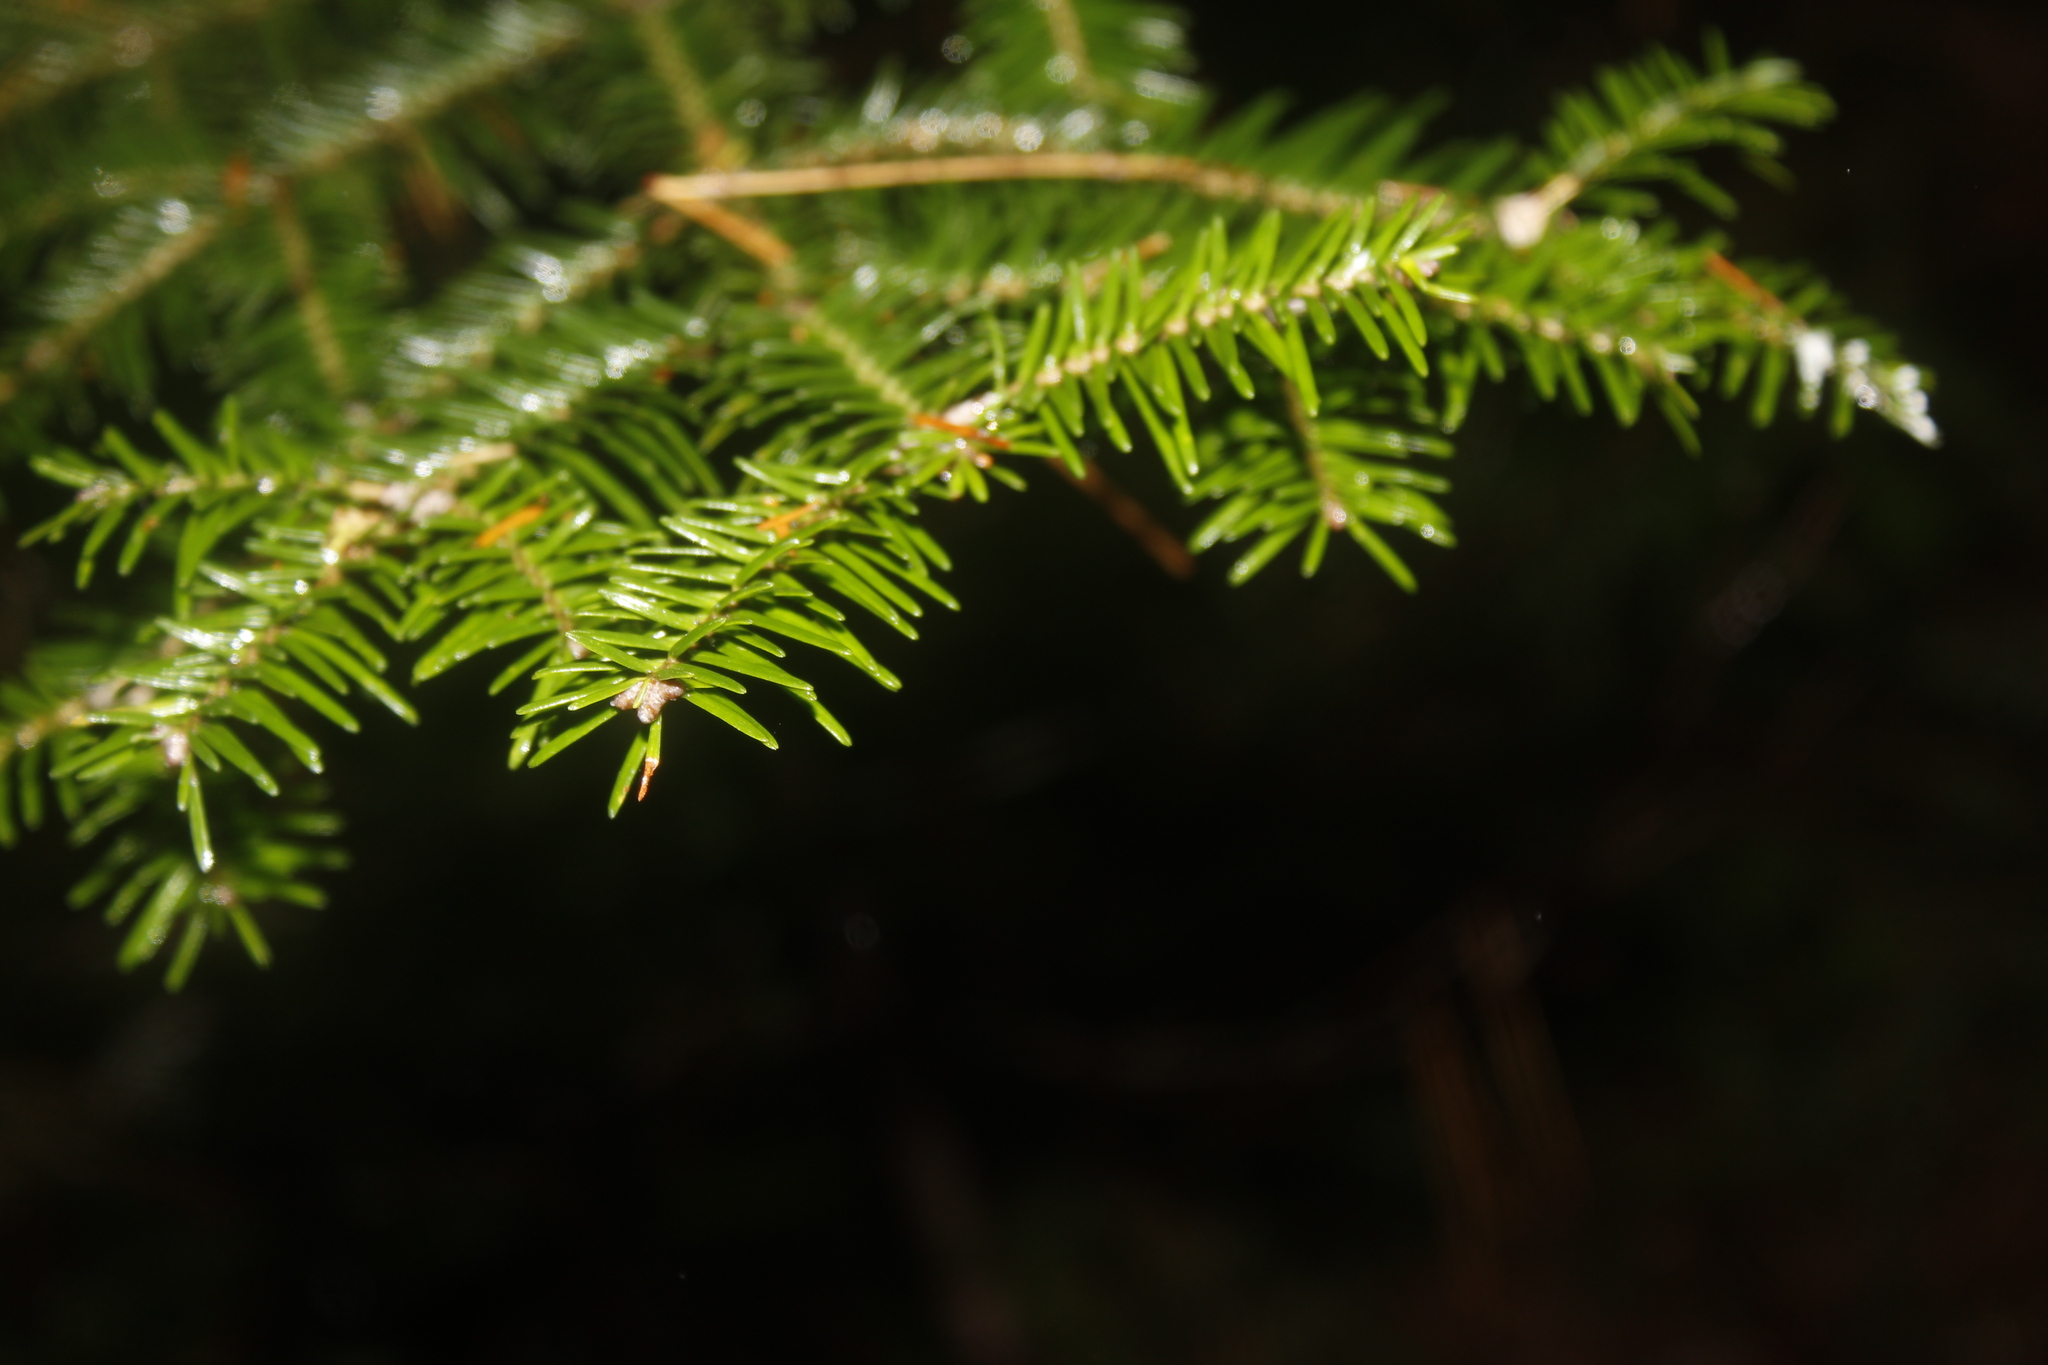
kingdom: Plantae
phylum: Tracheophyta
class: Pinopsida
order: Pinales
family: Pinaceae
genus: Abies
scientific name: Abies balsamea
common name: Balsam fir
